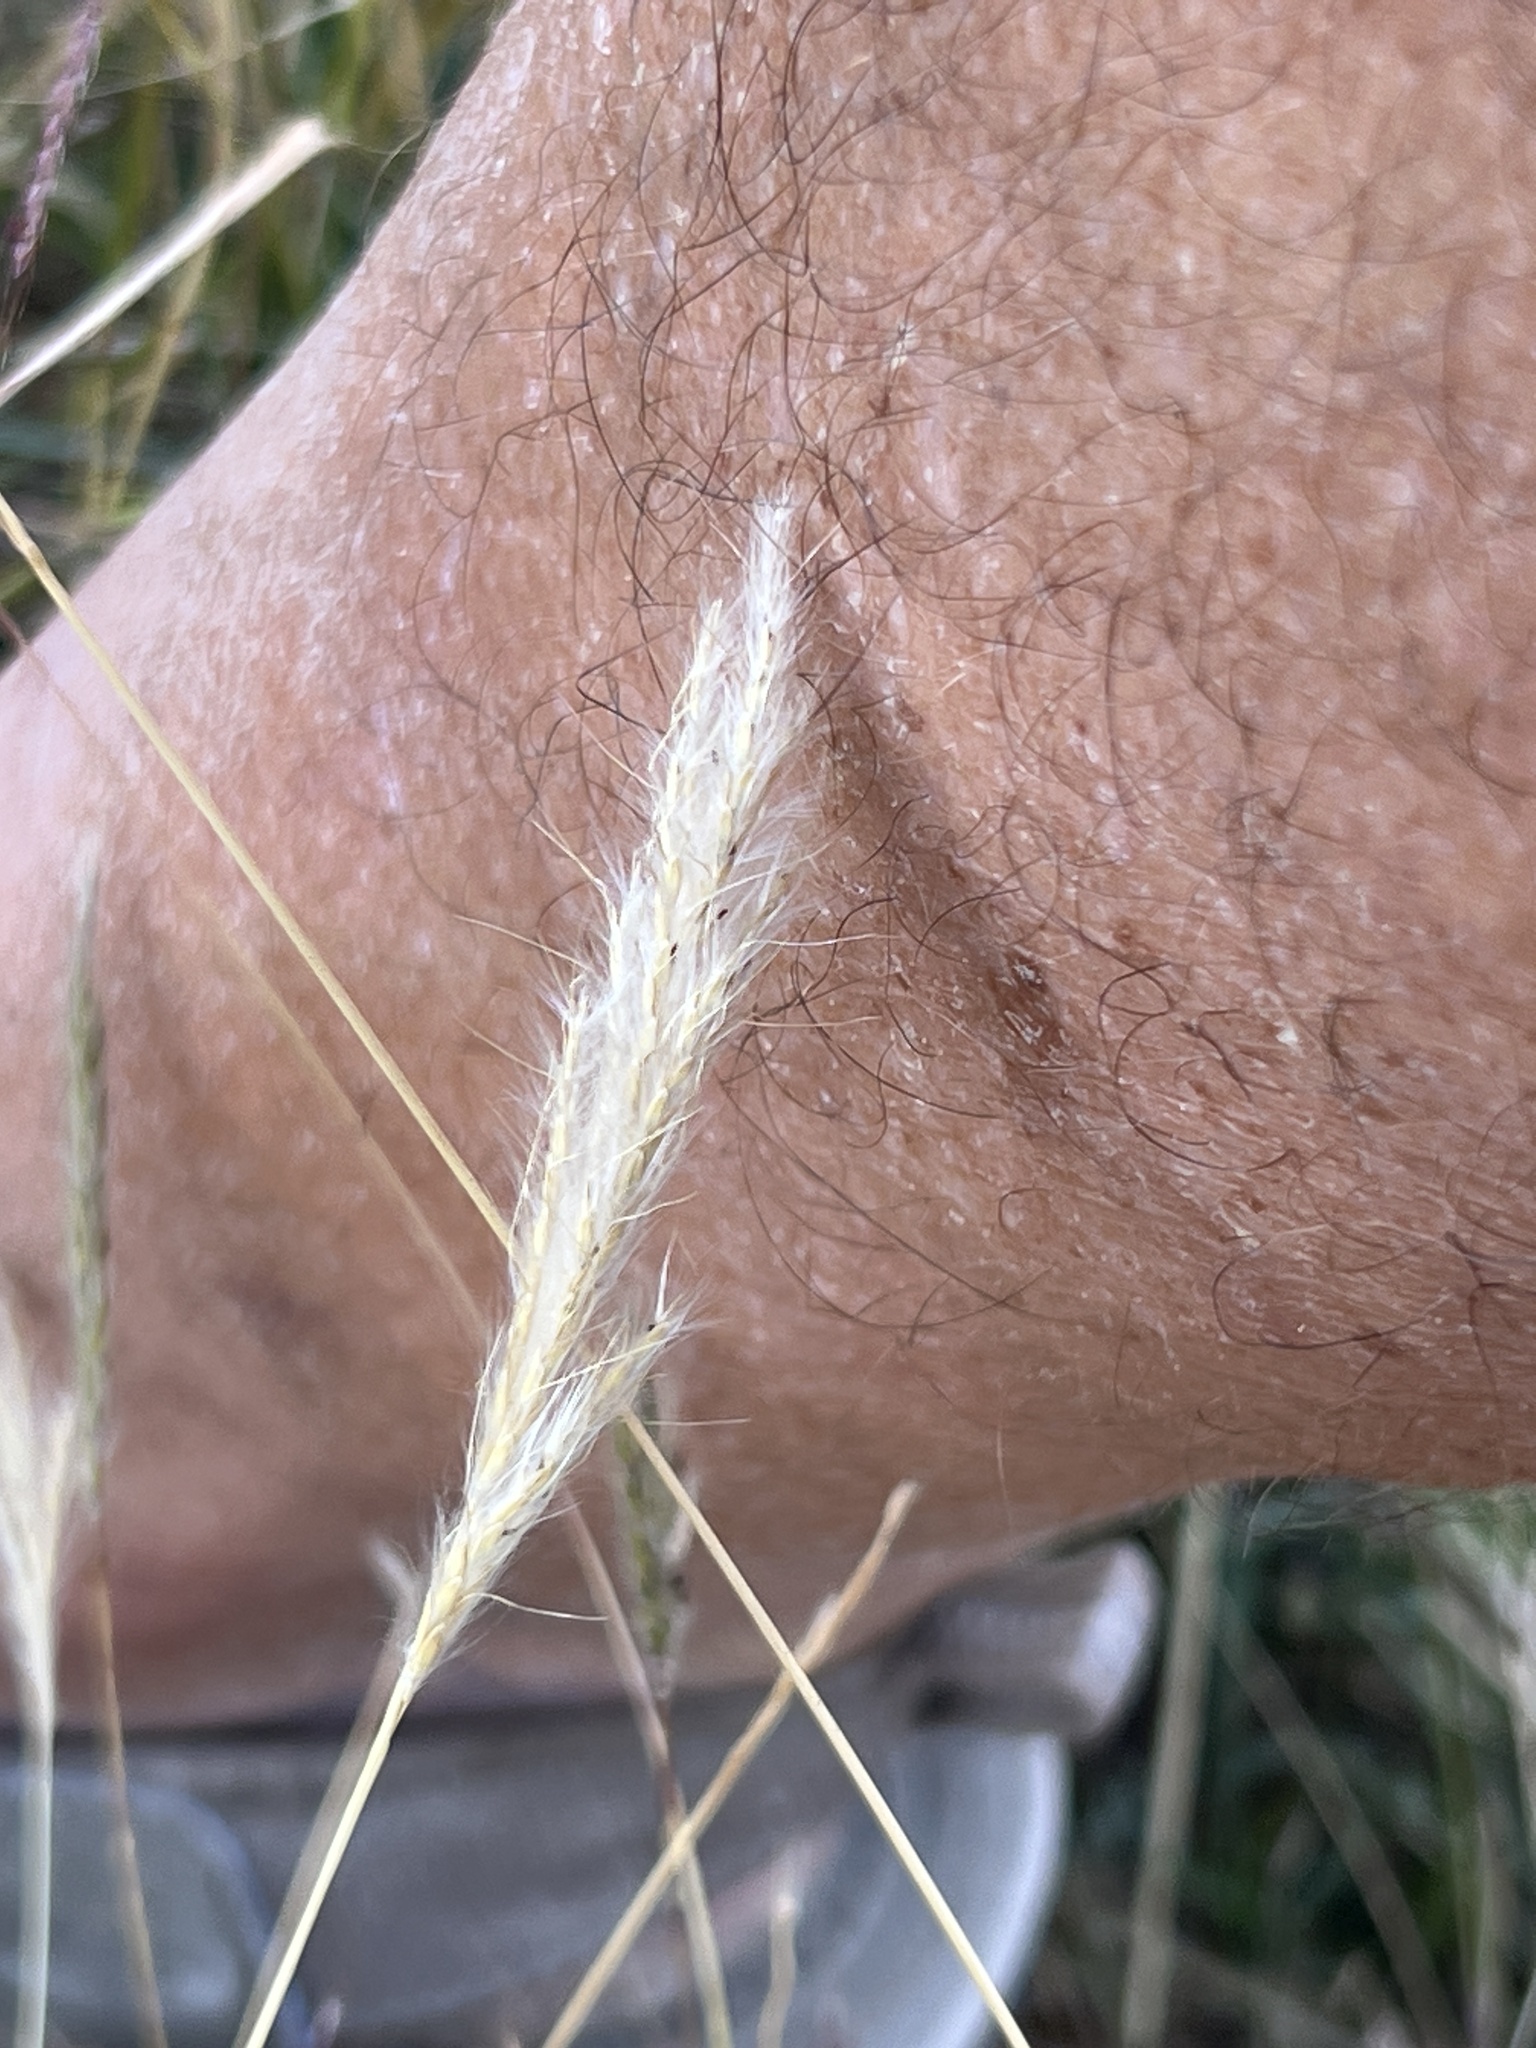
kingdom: Plantae
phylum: Tracheophyta
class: Liliopsida
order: Poales
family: Poaceae
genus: Bothriochloa
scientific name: Bothriochloa torreyana
